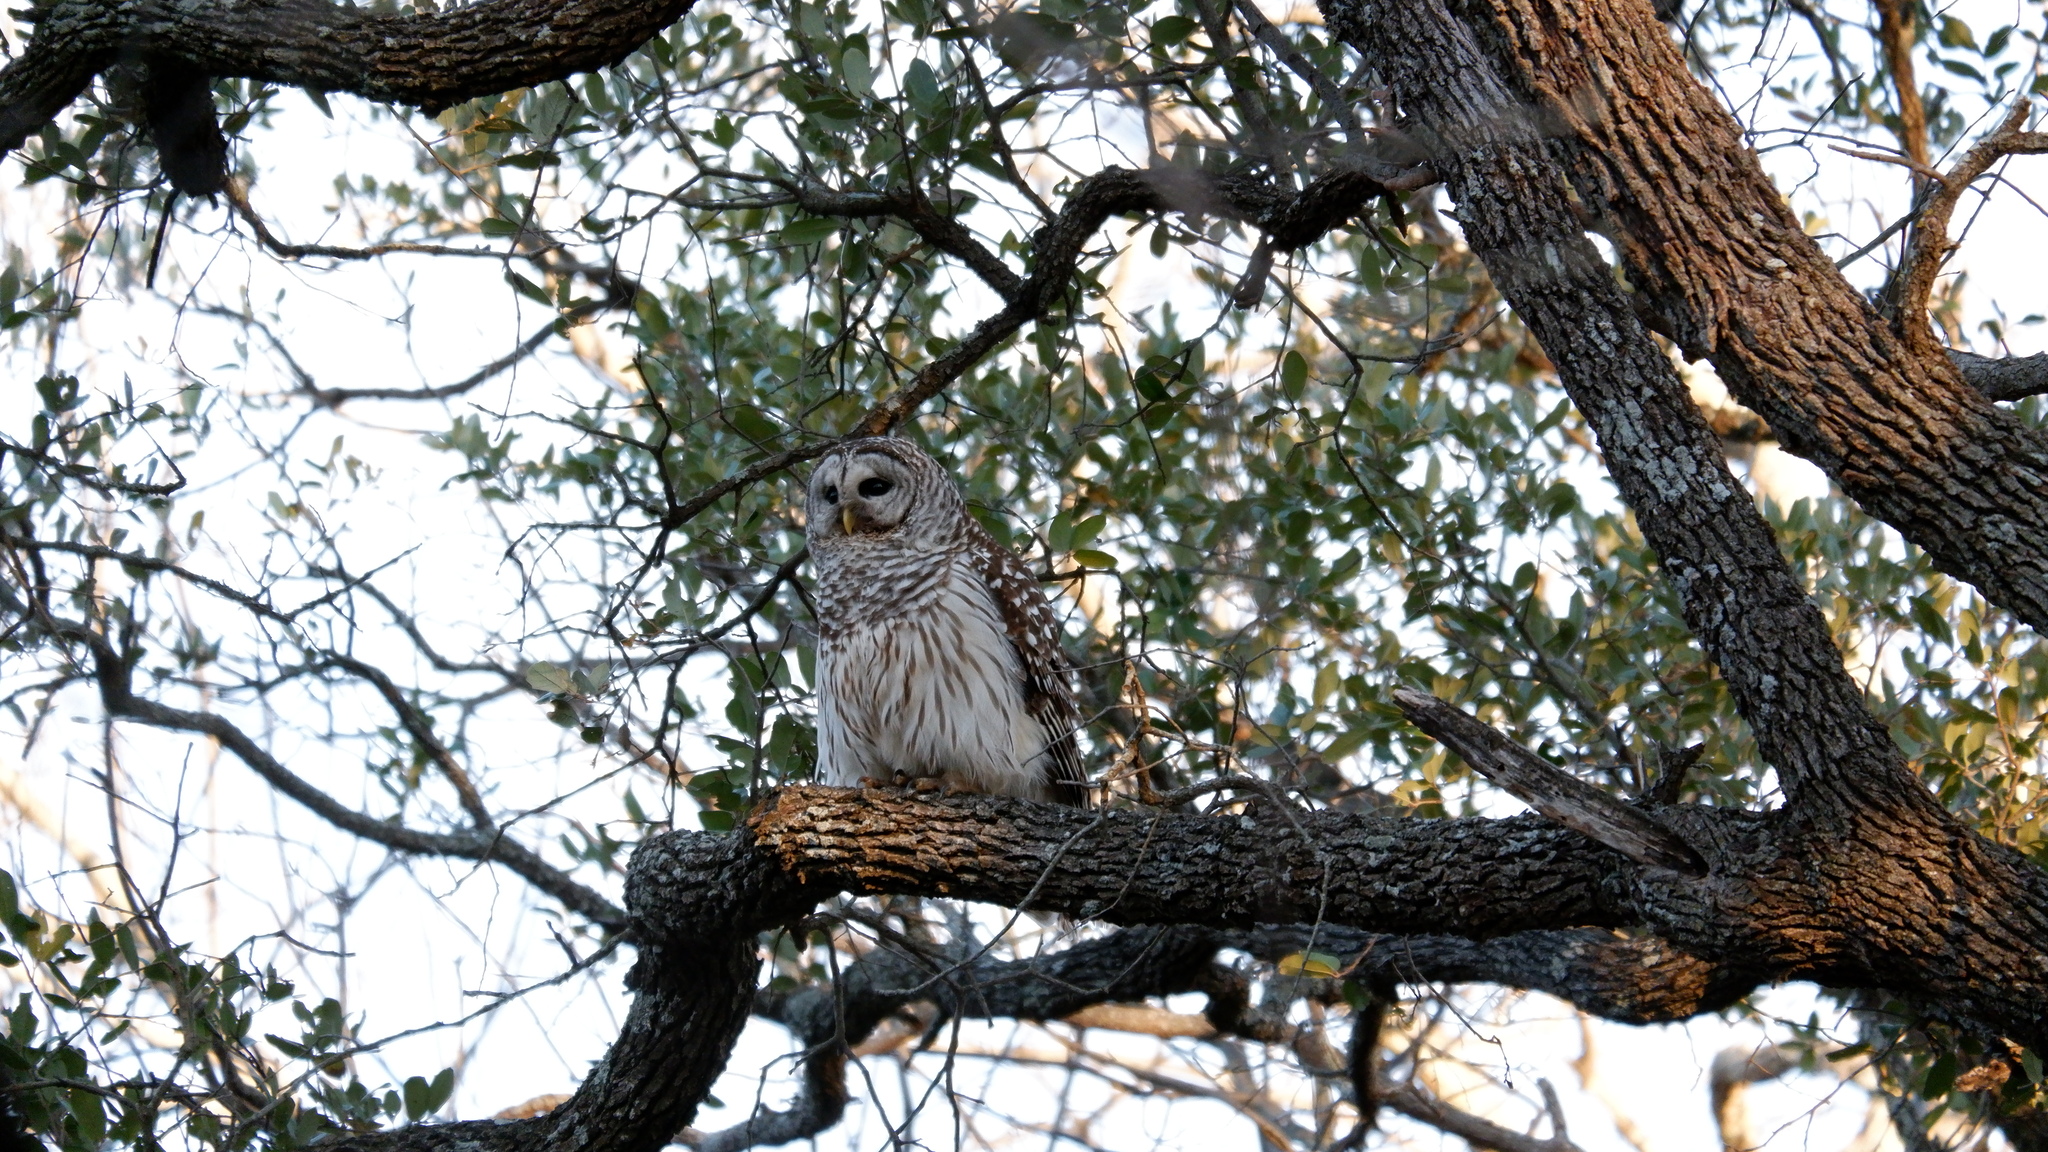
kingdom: Animalia
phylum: Chordata
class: Aves
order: Strigiformes
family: Strigidae
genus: Strix
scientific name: Strix varia
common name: Barred owl
